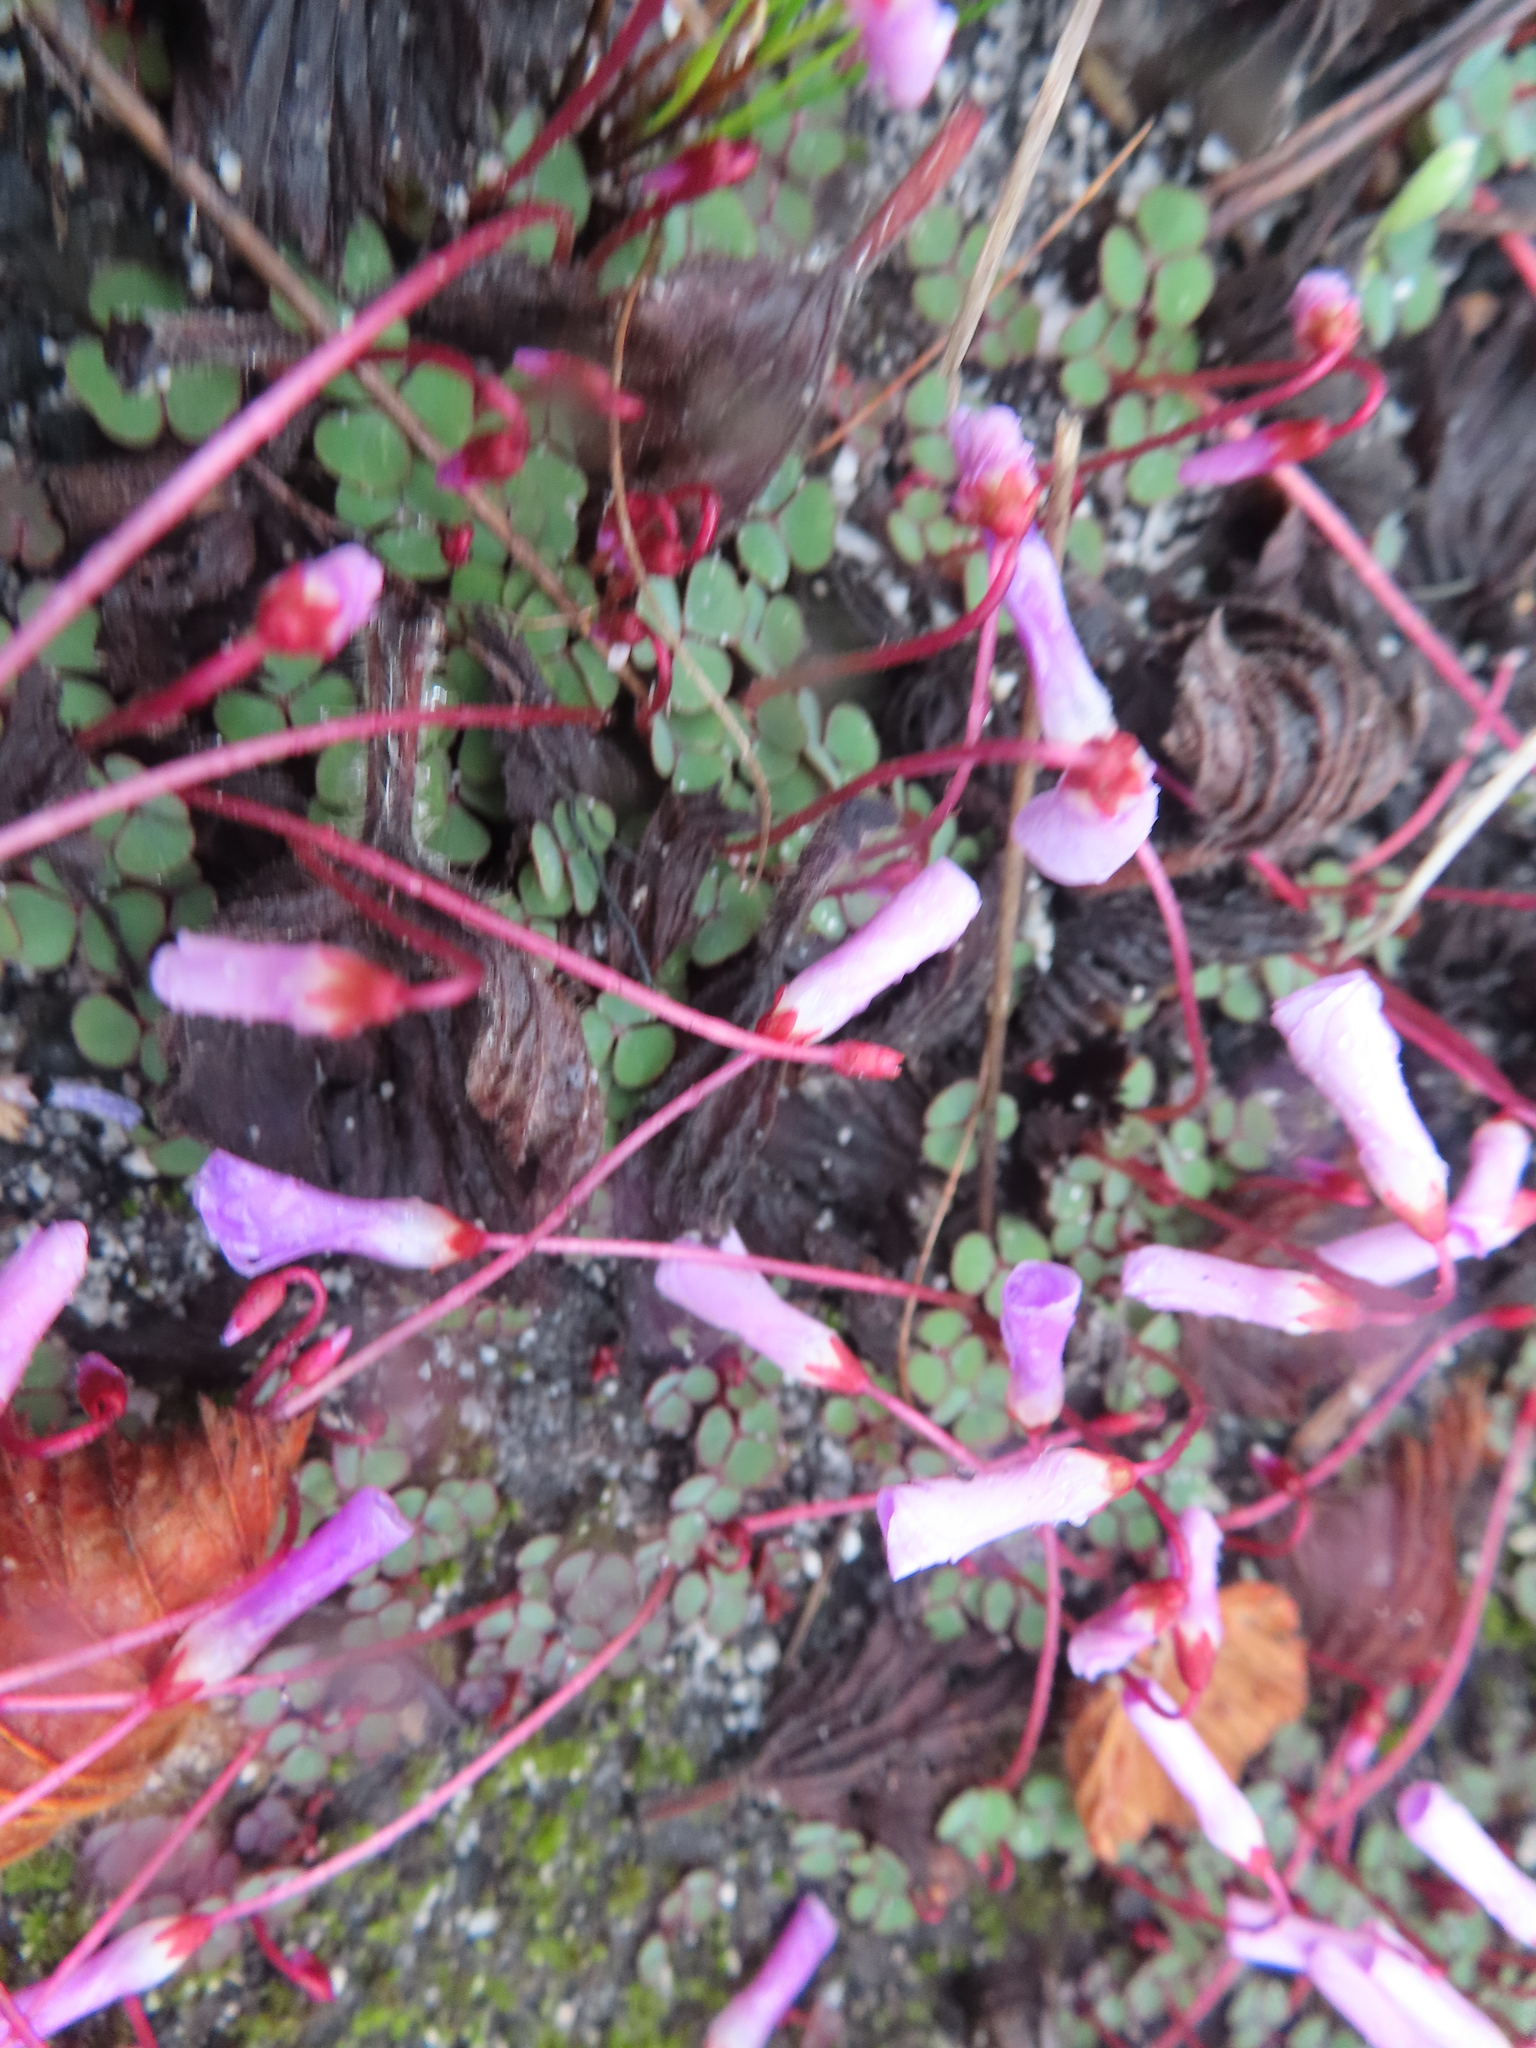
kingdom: Plantae
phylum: Tracheophyta
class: Magnoliopsida
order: Oxalidales
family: Oxalidaceae
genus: Oxalis
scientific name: Oxalis commutata
